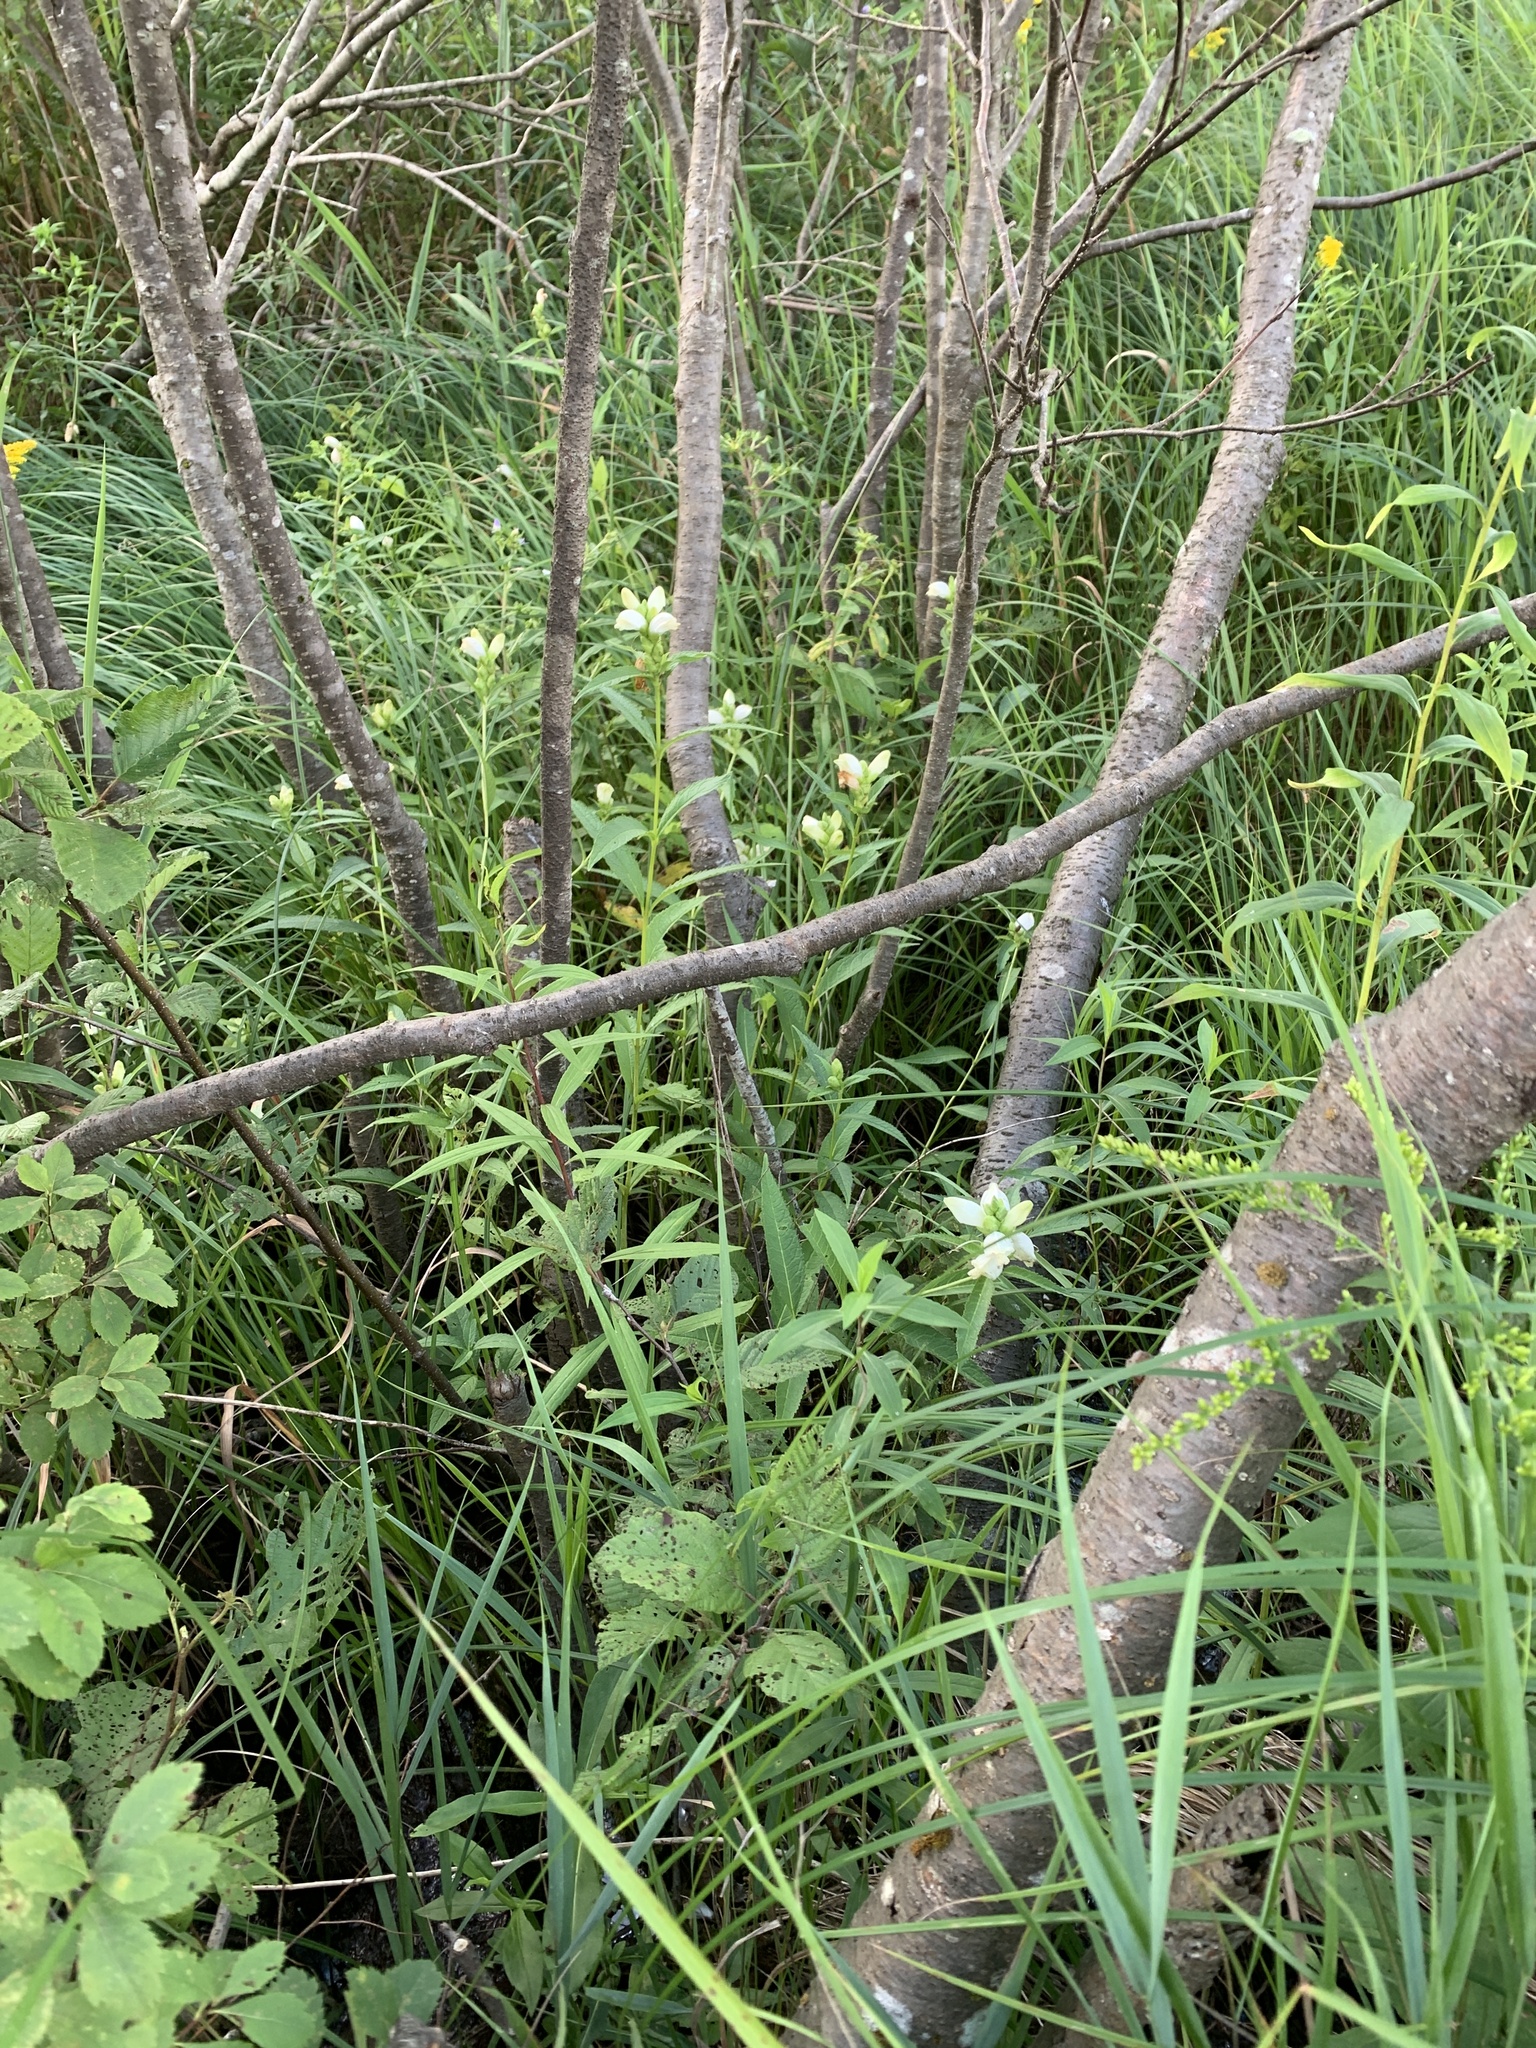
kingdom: Plantae
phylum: Tracheophyta
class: Magnoliopsida
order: Lamiales
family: Plantaginaceae
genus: Chelone
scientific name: Chelone glabra
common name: Snakehead
